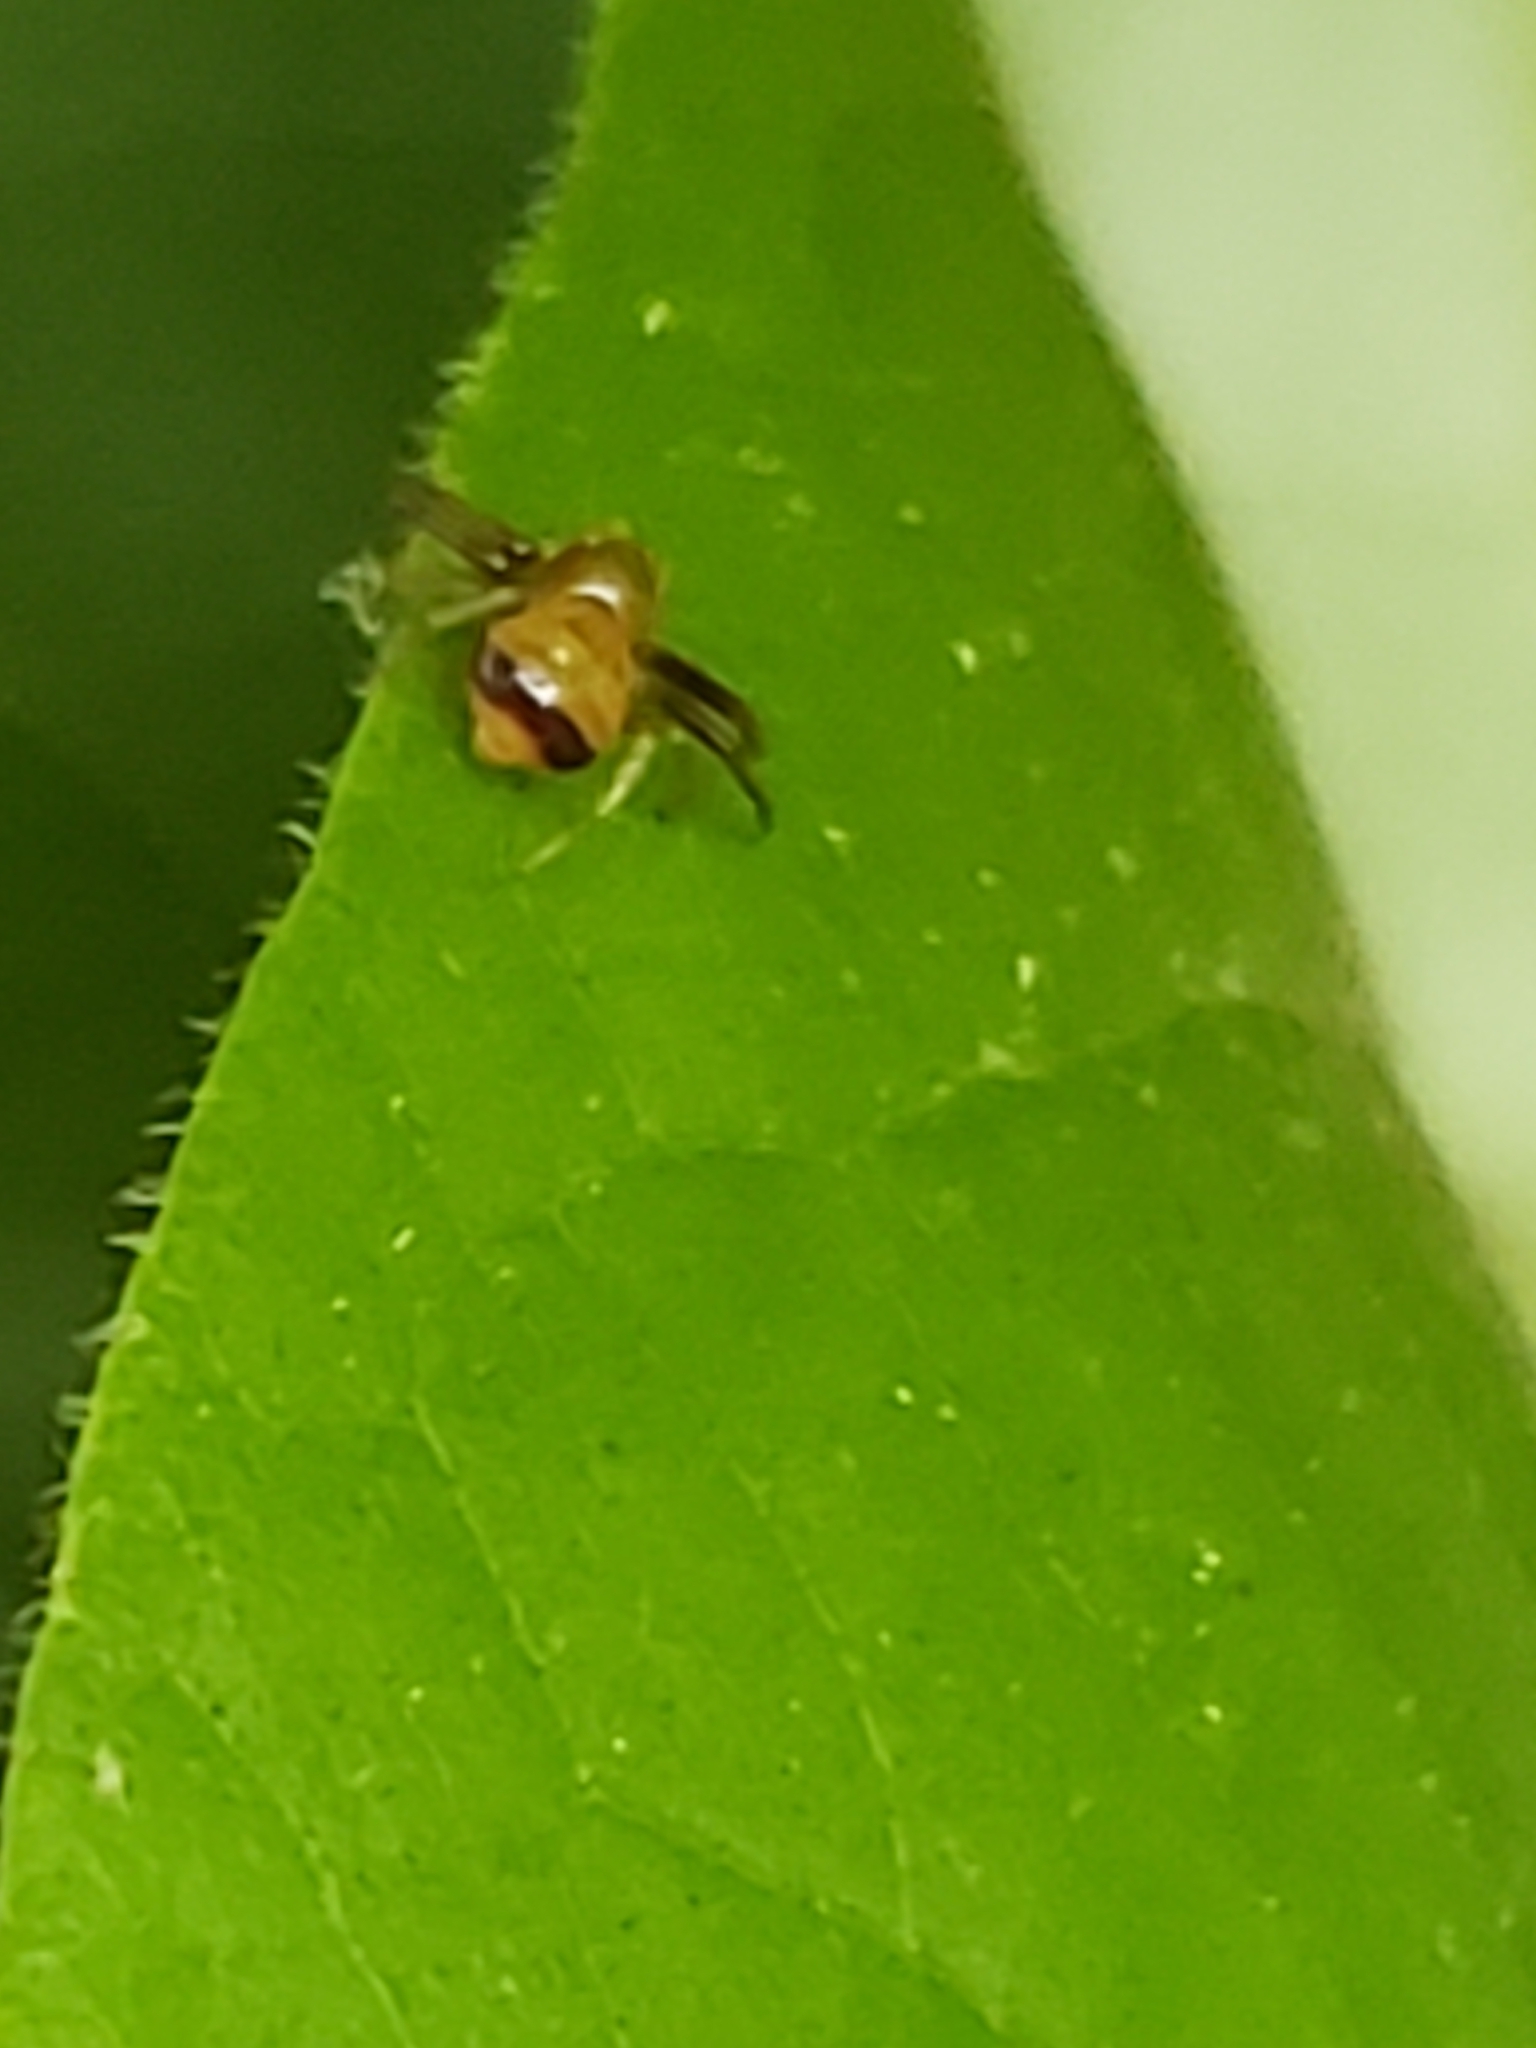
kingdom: Animalia
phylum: Arthropoda
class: Arachnida
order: Araneae
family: Thomisidae
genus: Synema
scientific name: Synema parvulum
